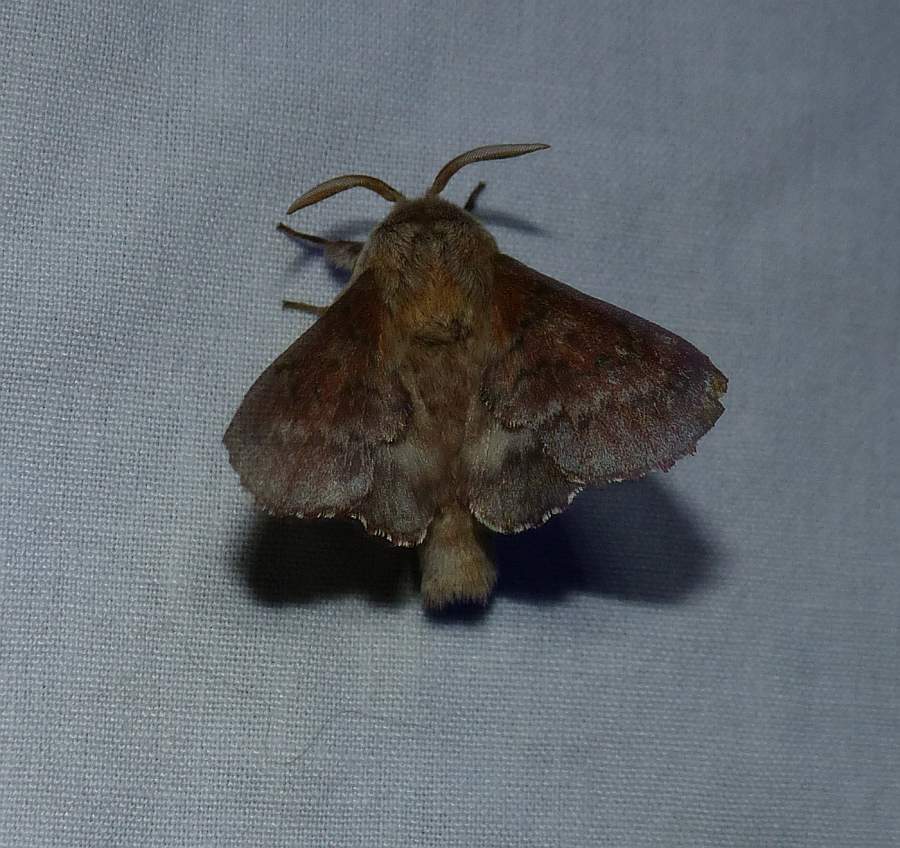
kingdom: Animalia
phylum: Arthropoda
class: Insecta
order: Lepidoptera
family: Lasiocampidae
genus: Phyllodesma
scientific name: Phyllodesma americana
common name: American lappet moth
